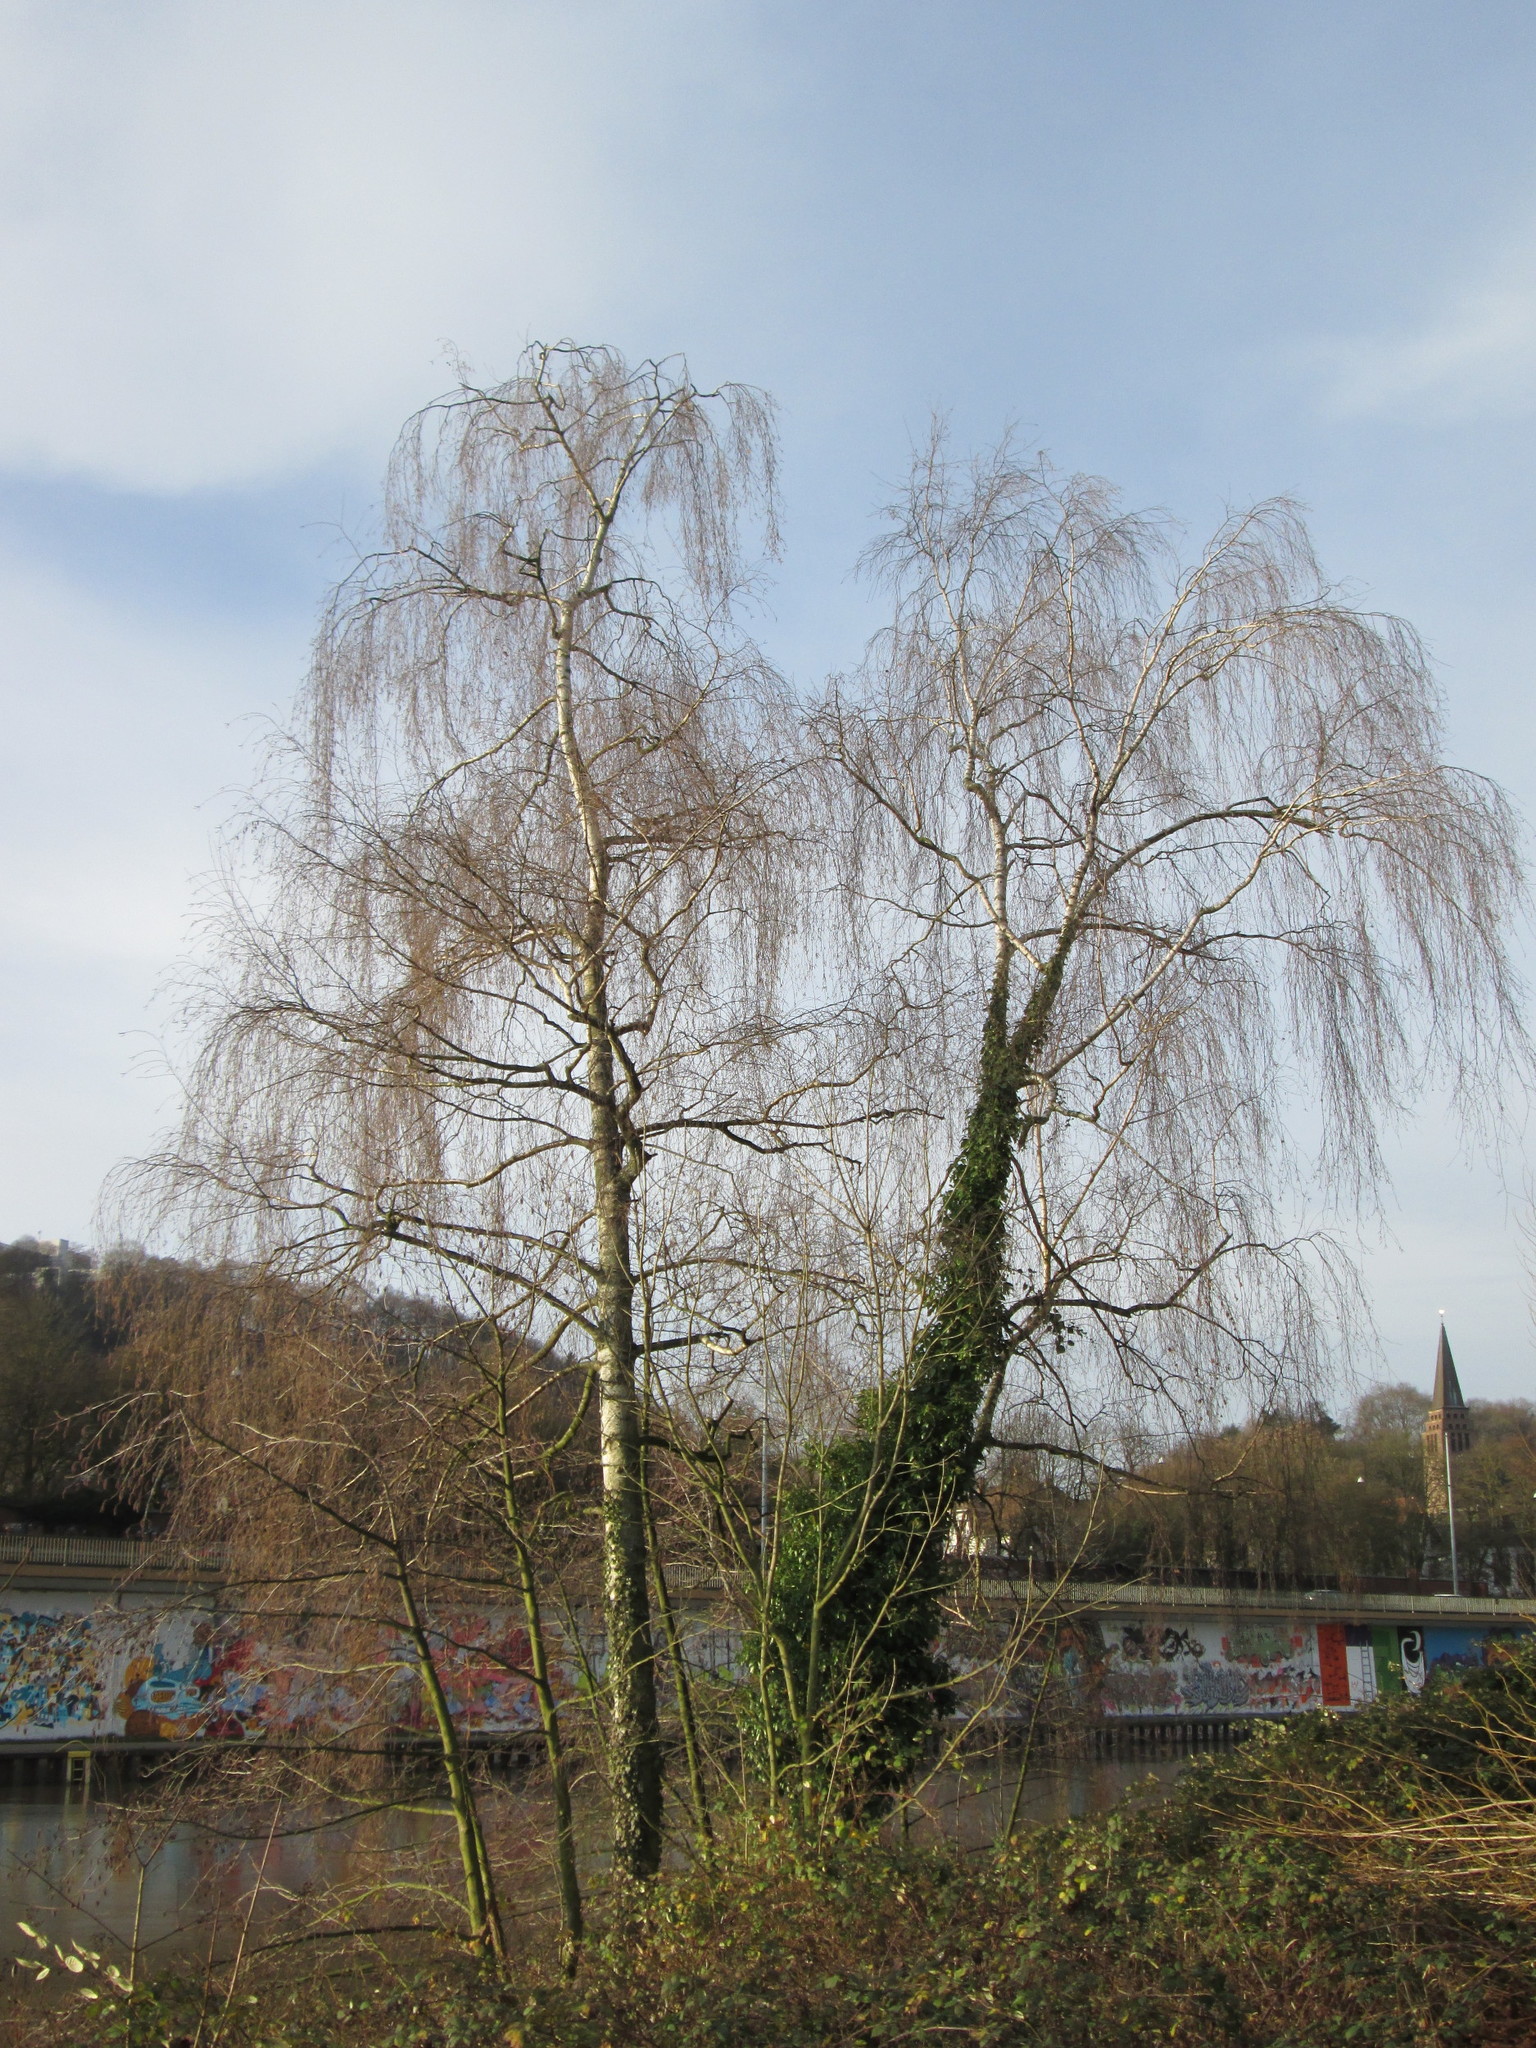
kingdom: Plantae
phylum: Tracheophyta
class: Magnoliopsida
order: Fagales
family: Betulaceae
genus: Betula
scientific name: Betula pendula
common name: Silver birch
